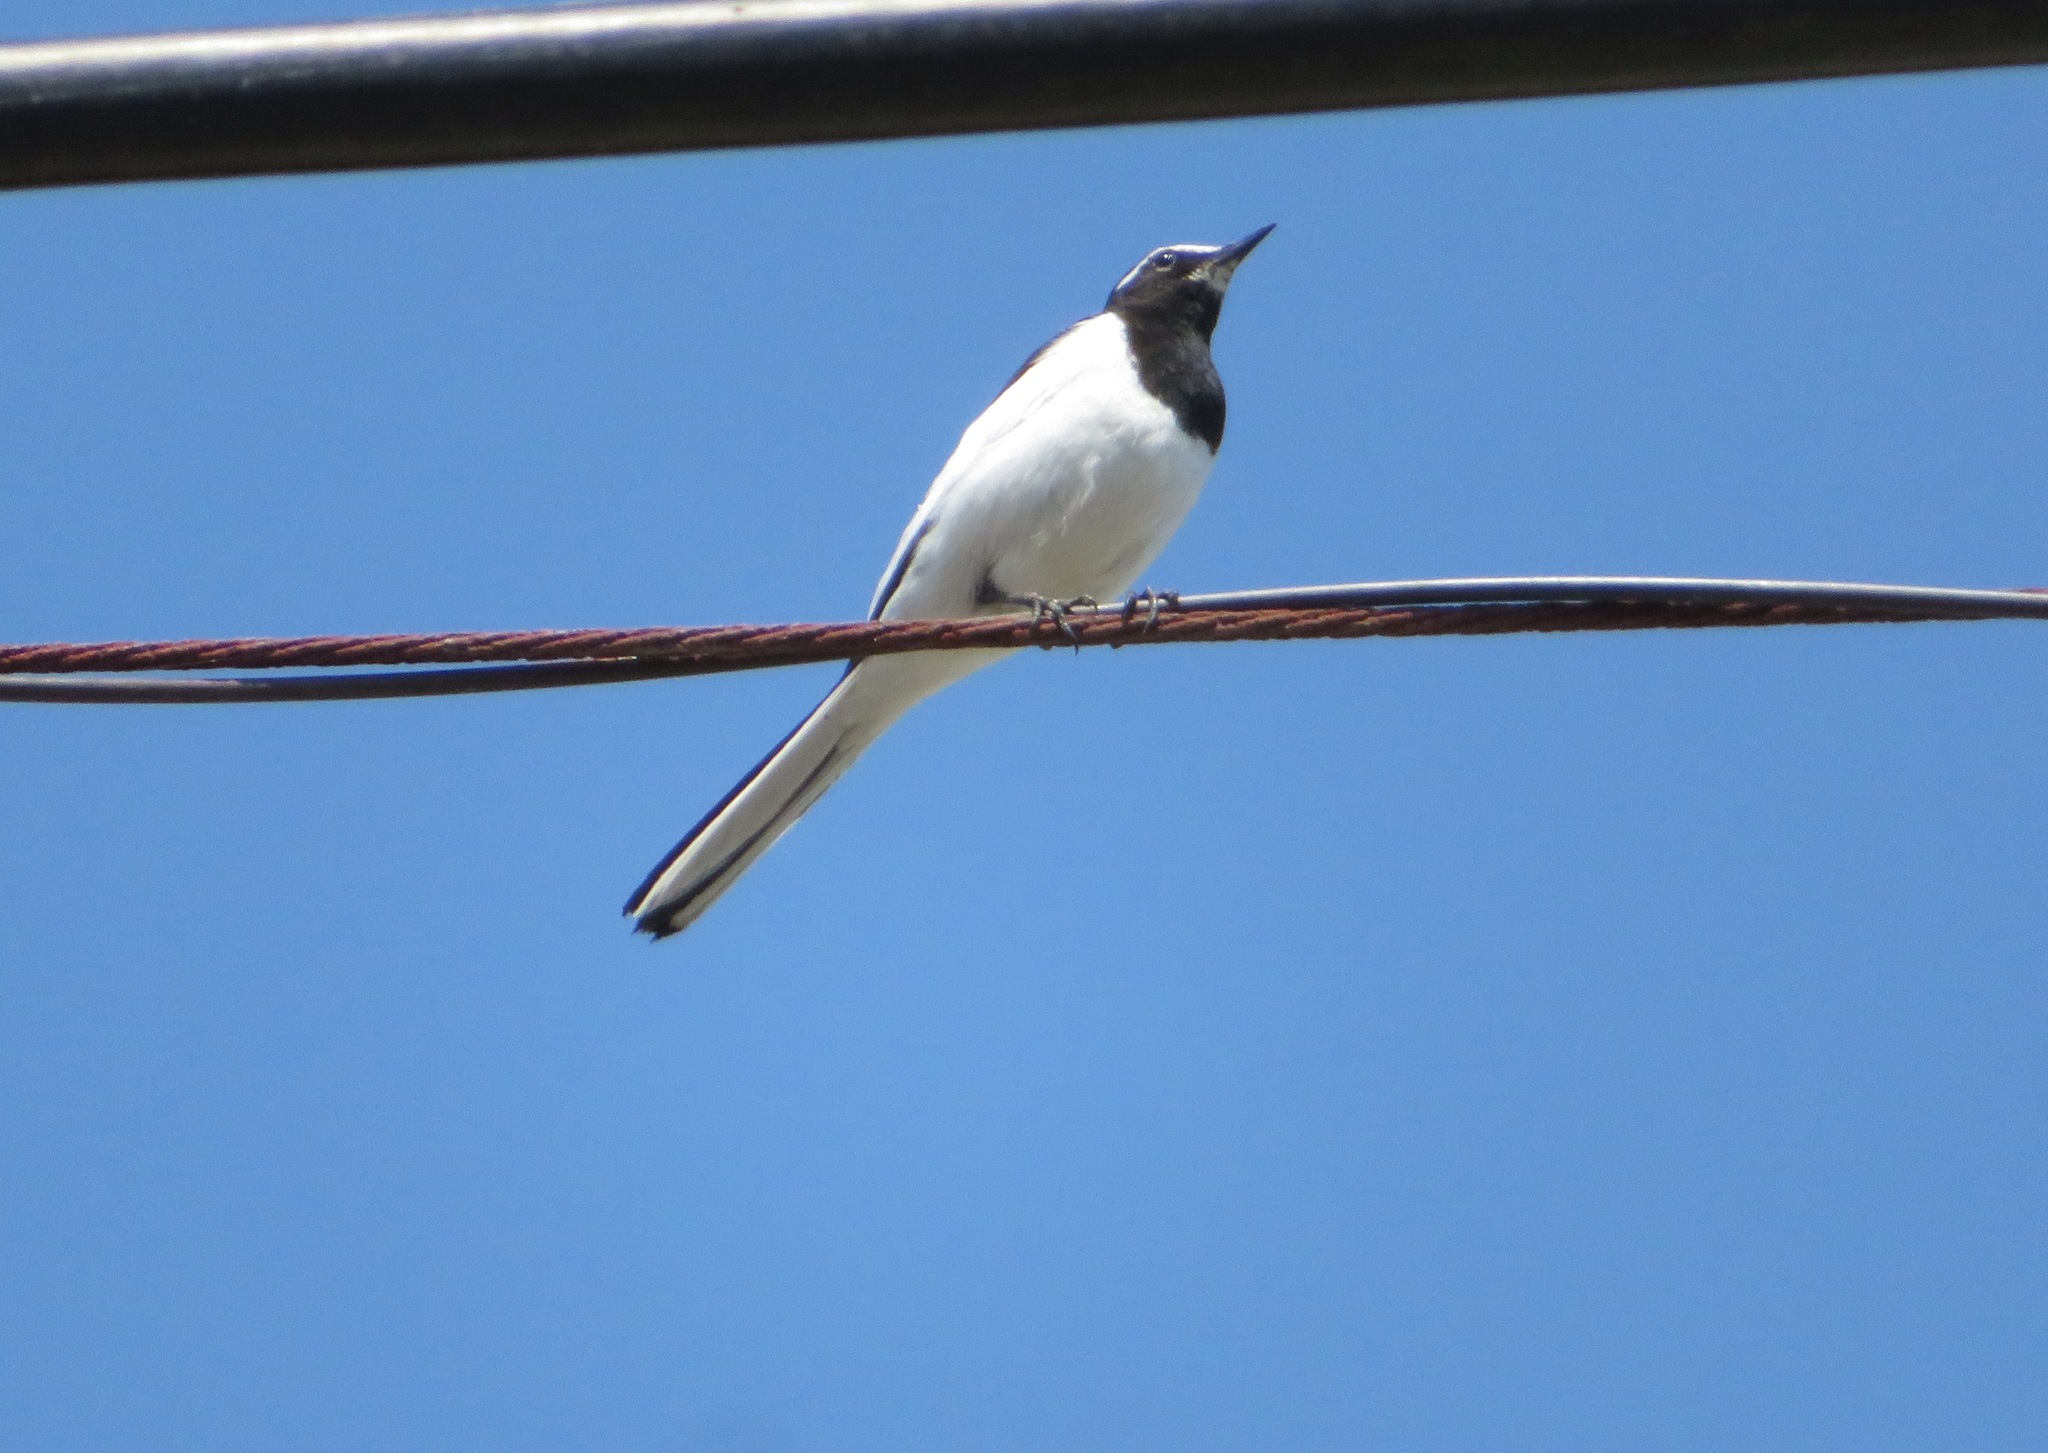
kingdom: Animalia
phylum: Chordata
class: Aves
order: Passeriformes
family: Motacillidae
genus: Motacilla
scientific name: Motacilla grandis
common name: Japanese wagtail
